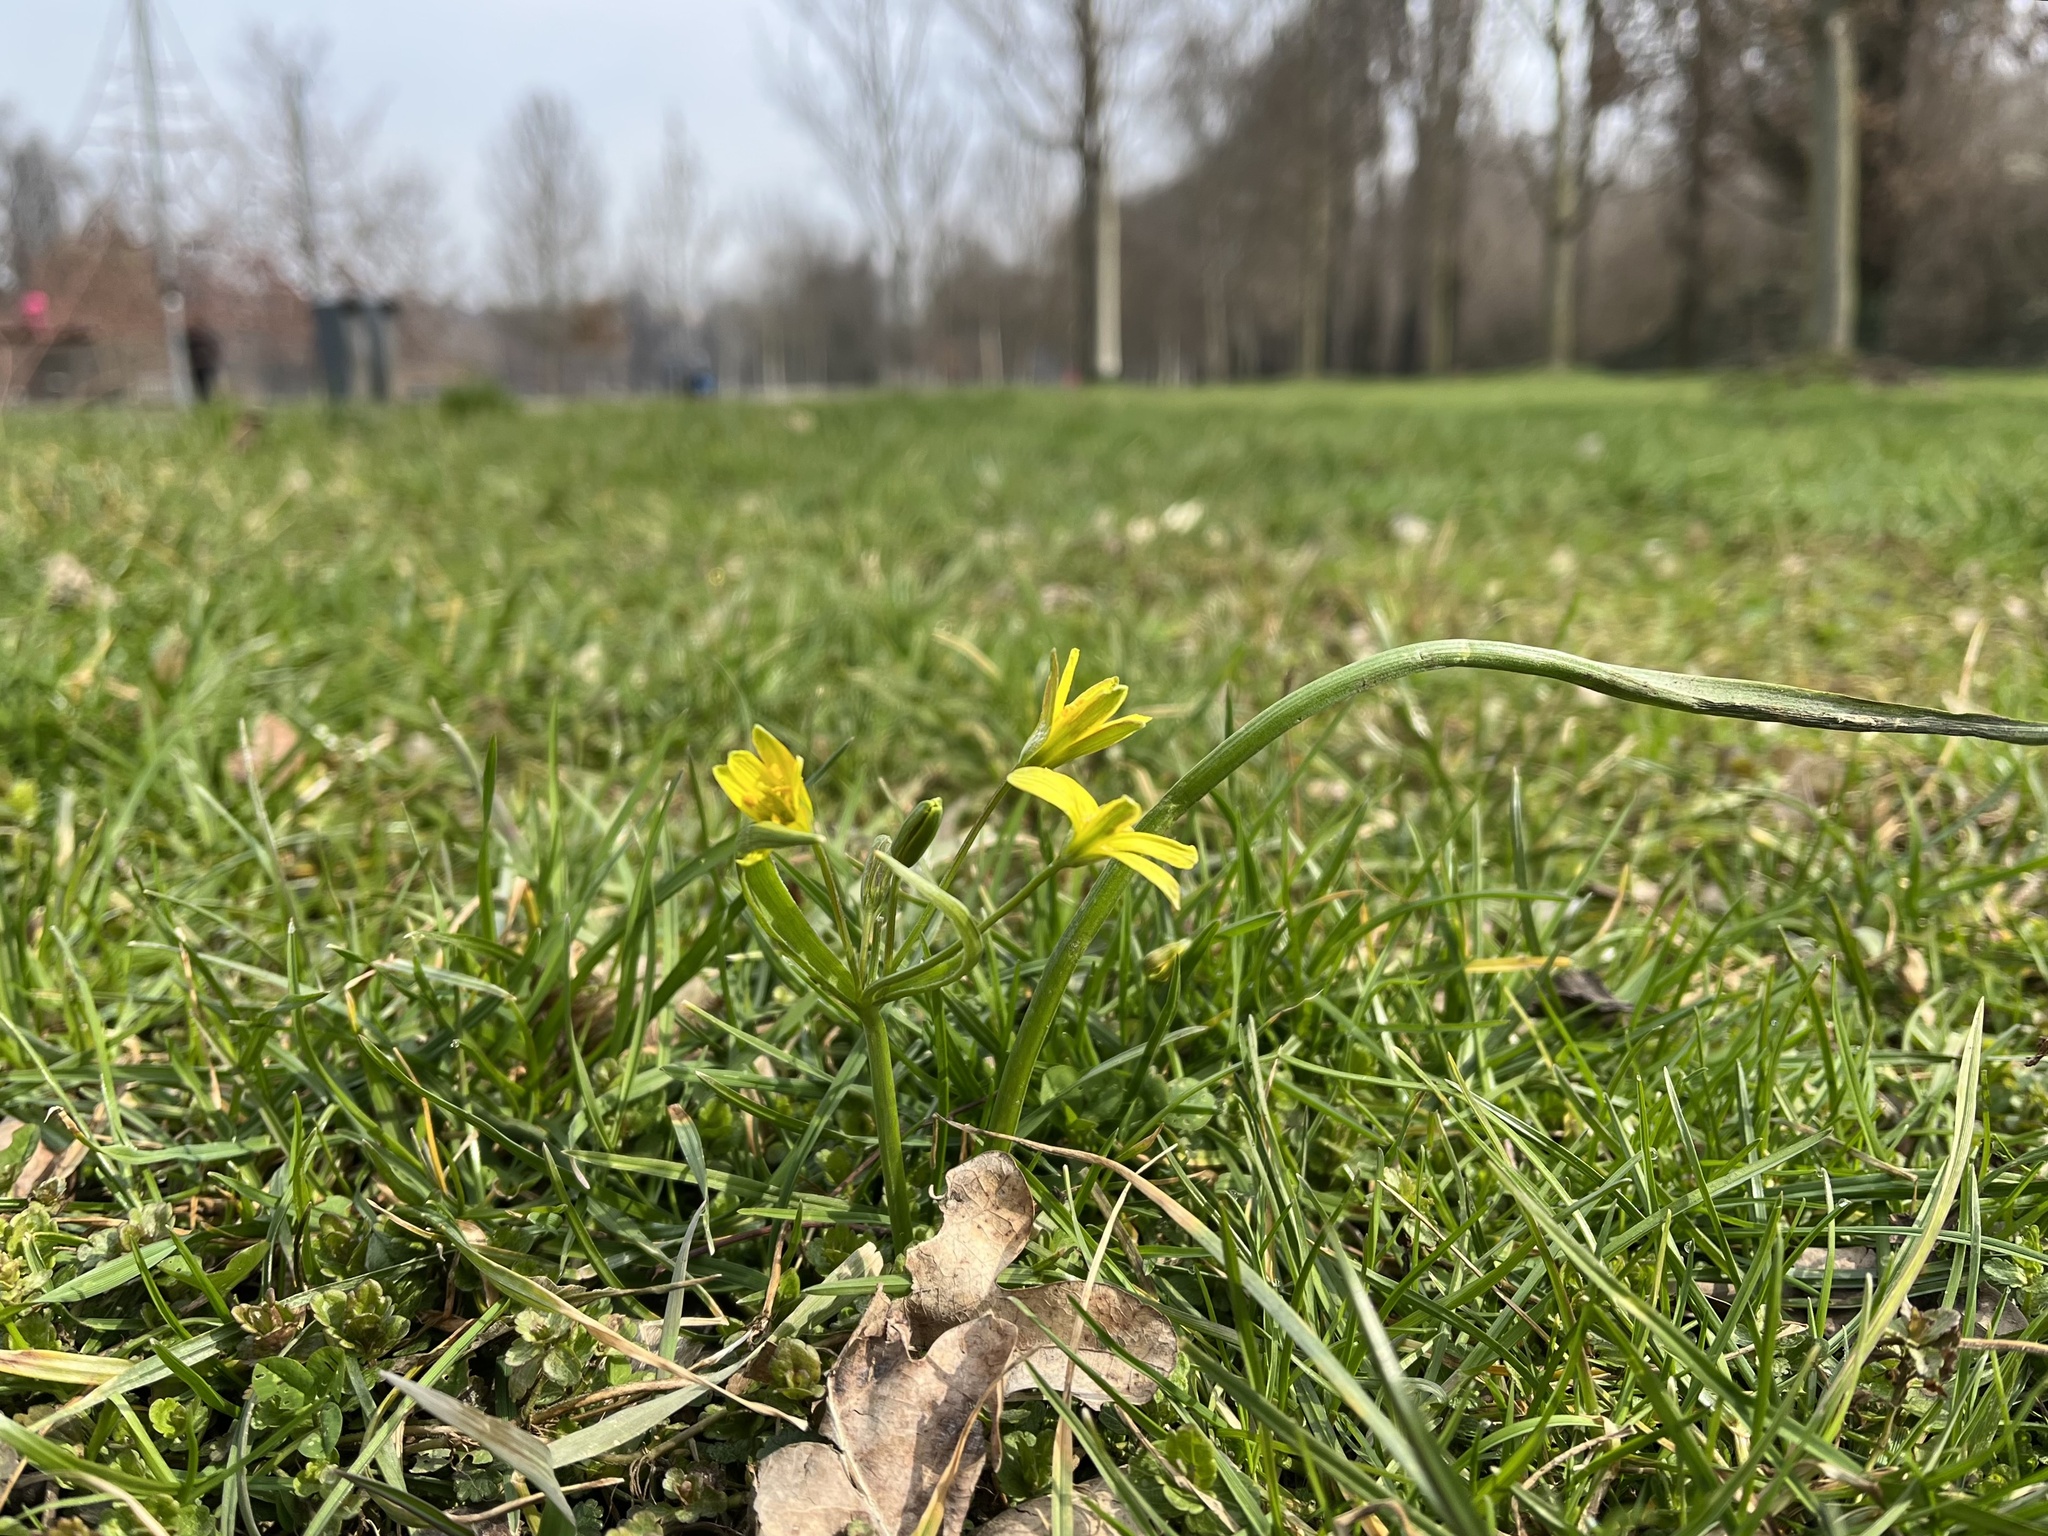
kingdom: Plantae
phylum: Tracheophyta
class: Liliopsida
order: Liliales
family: Liliaceae
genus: Gagea
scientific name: Gagea lutea
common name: Yellow star-of-bethlehem
